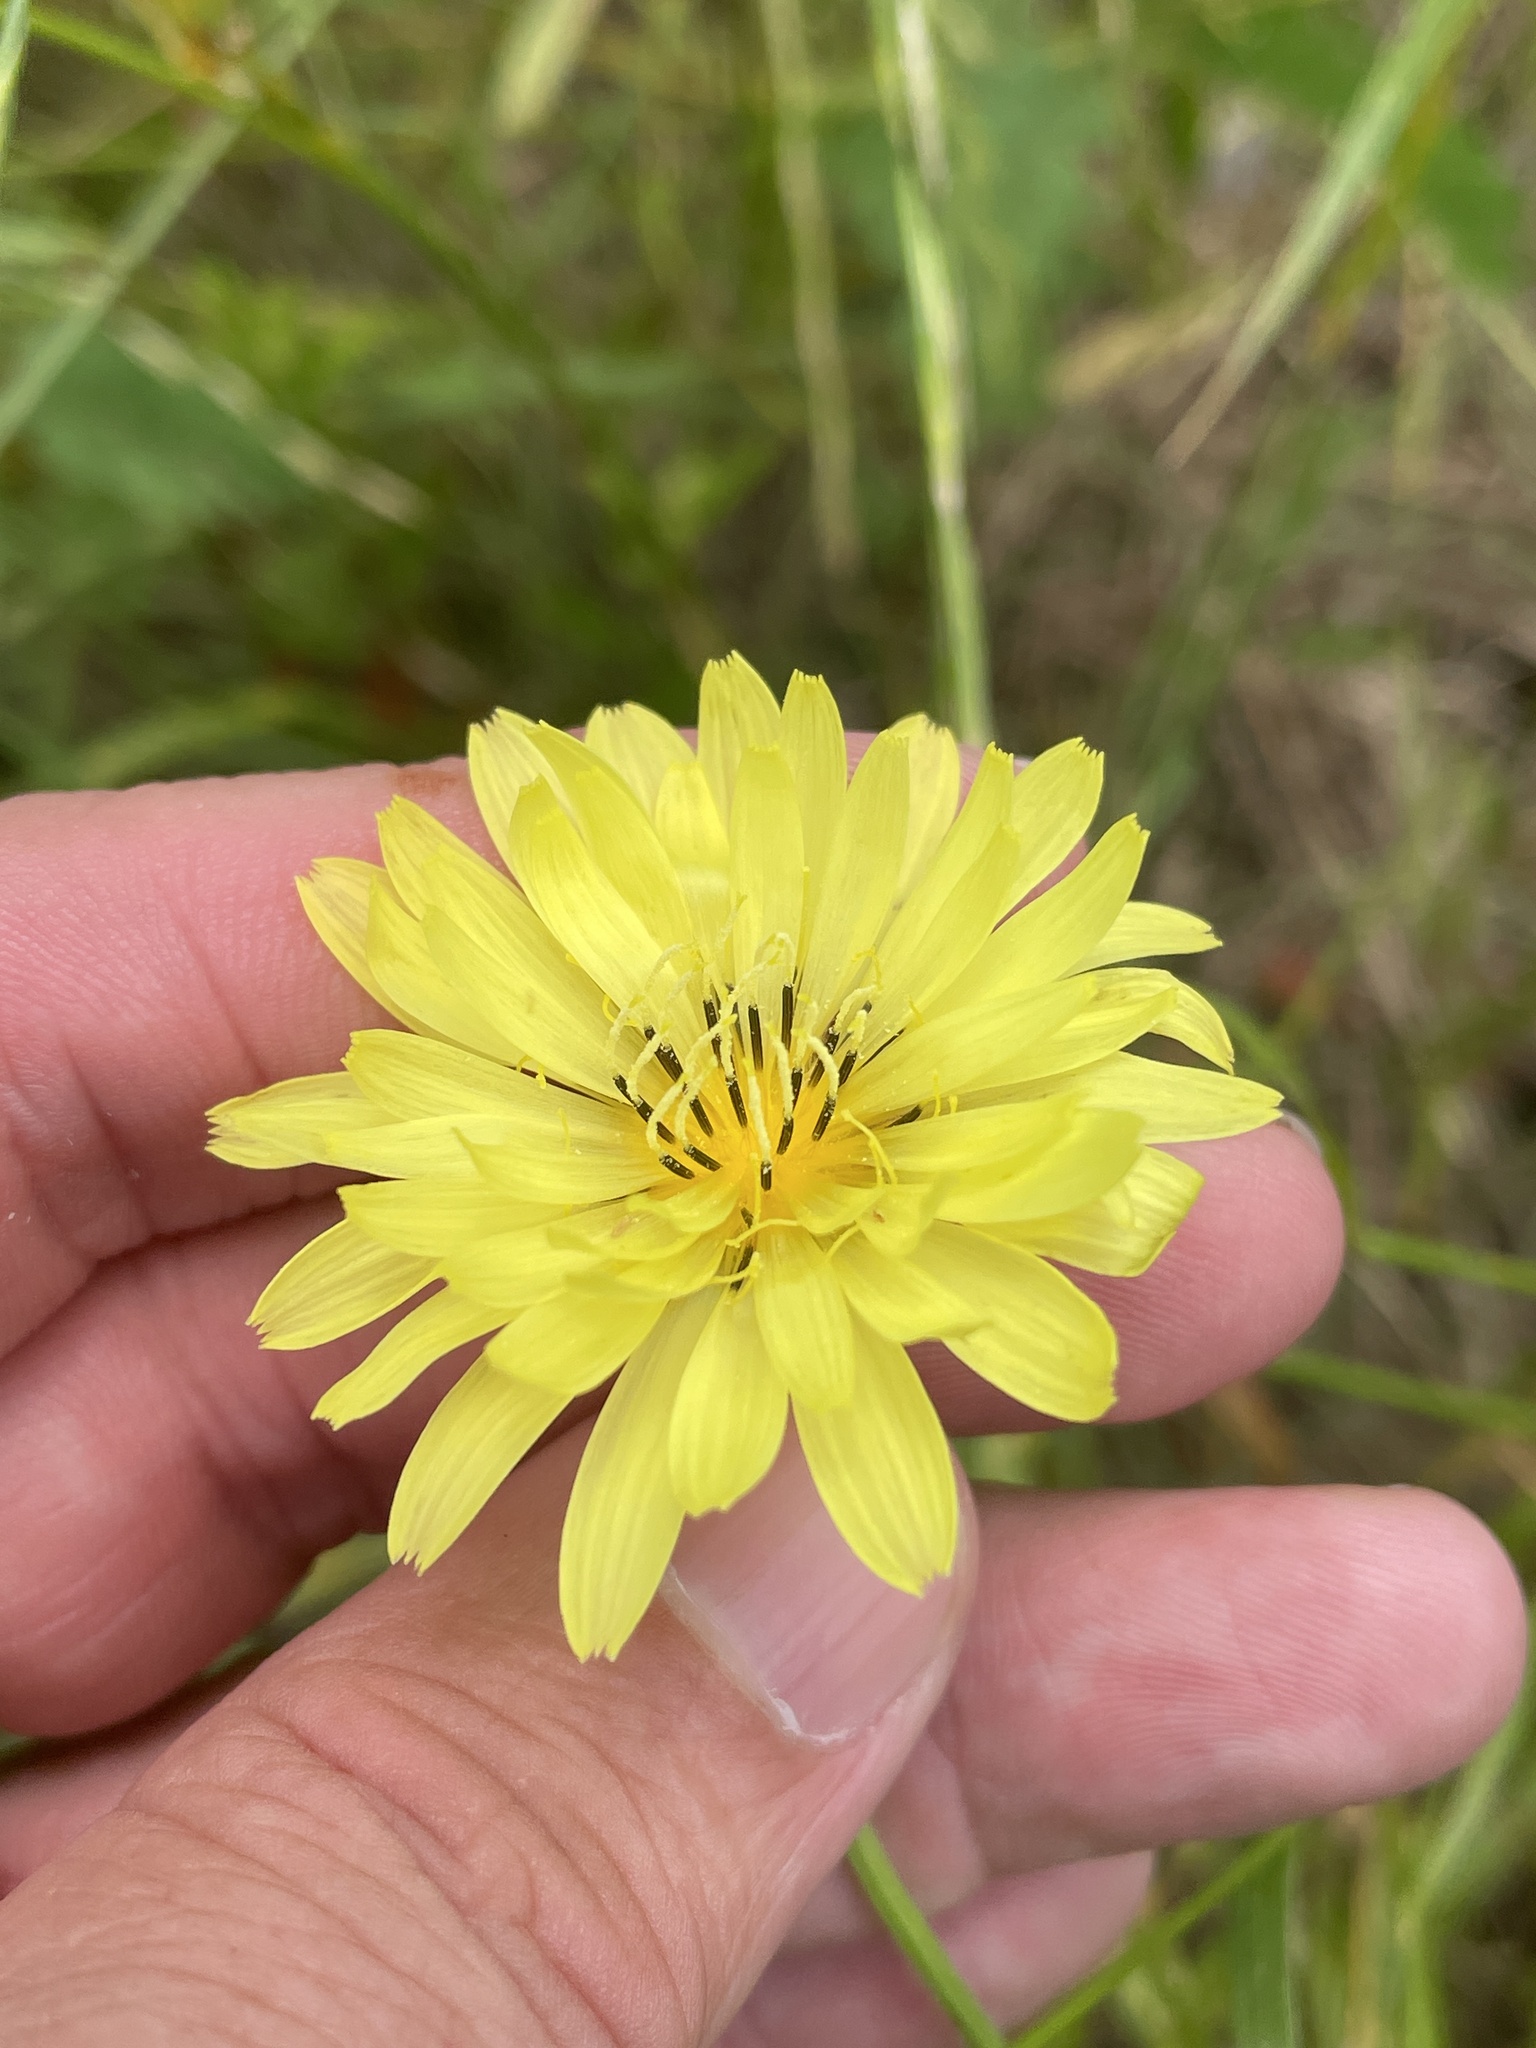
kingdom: Plantae
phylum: Tracheophyta
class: Magnoliopsida
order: Asterales
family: Asteraceae
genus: Pyrrhopappus
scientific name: Pyrrhopappus carolinianus
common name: Carolina desert-chicory
